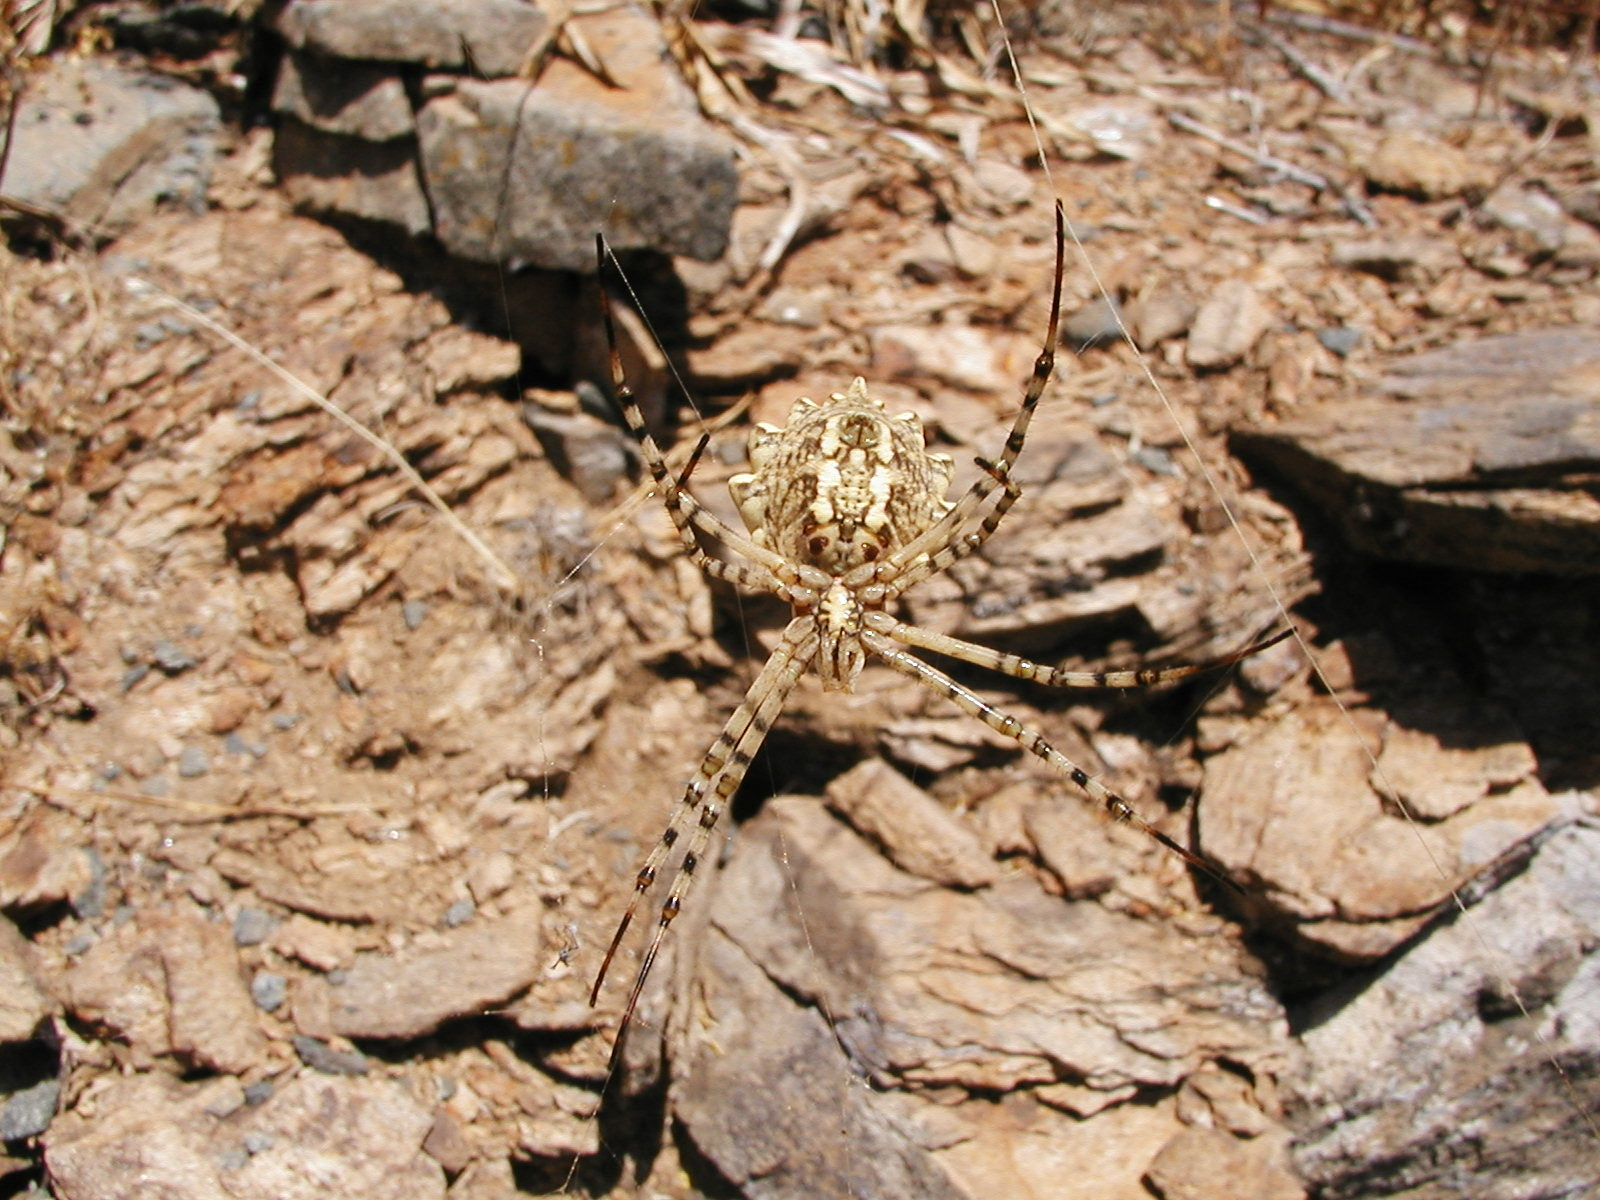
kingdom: Animalia
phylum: Arthropoda
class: Arachnida
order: Araneae
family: Araneidae
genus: Argiope
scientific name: Argiope lobata
